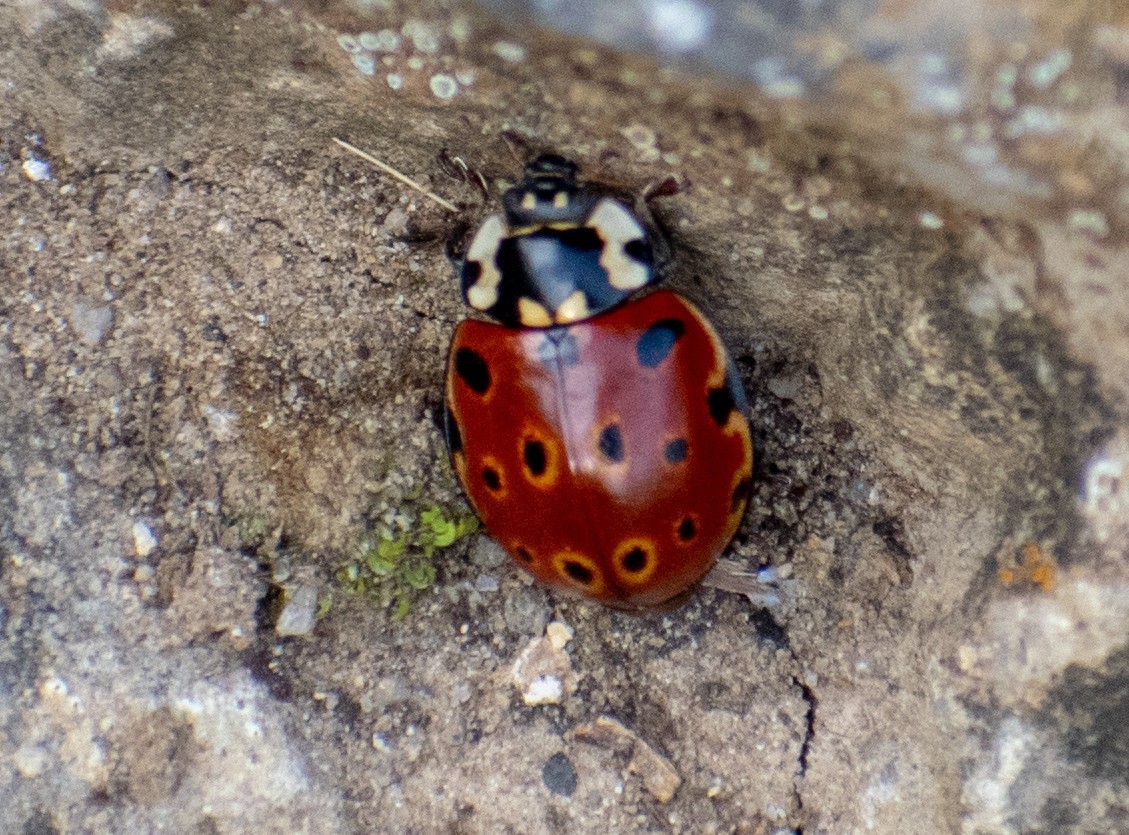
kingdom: Animalia
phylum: Arthropoda
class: Insecta
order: Coleoptera
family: Coccinellidae
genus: Anatis
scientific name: Anatis ocellata
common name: Eyed ladybird
